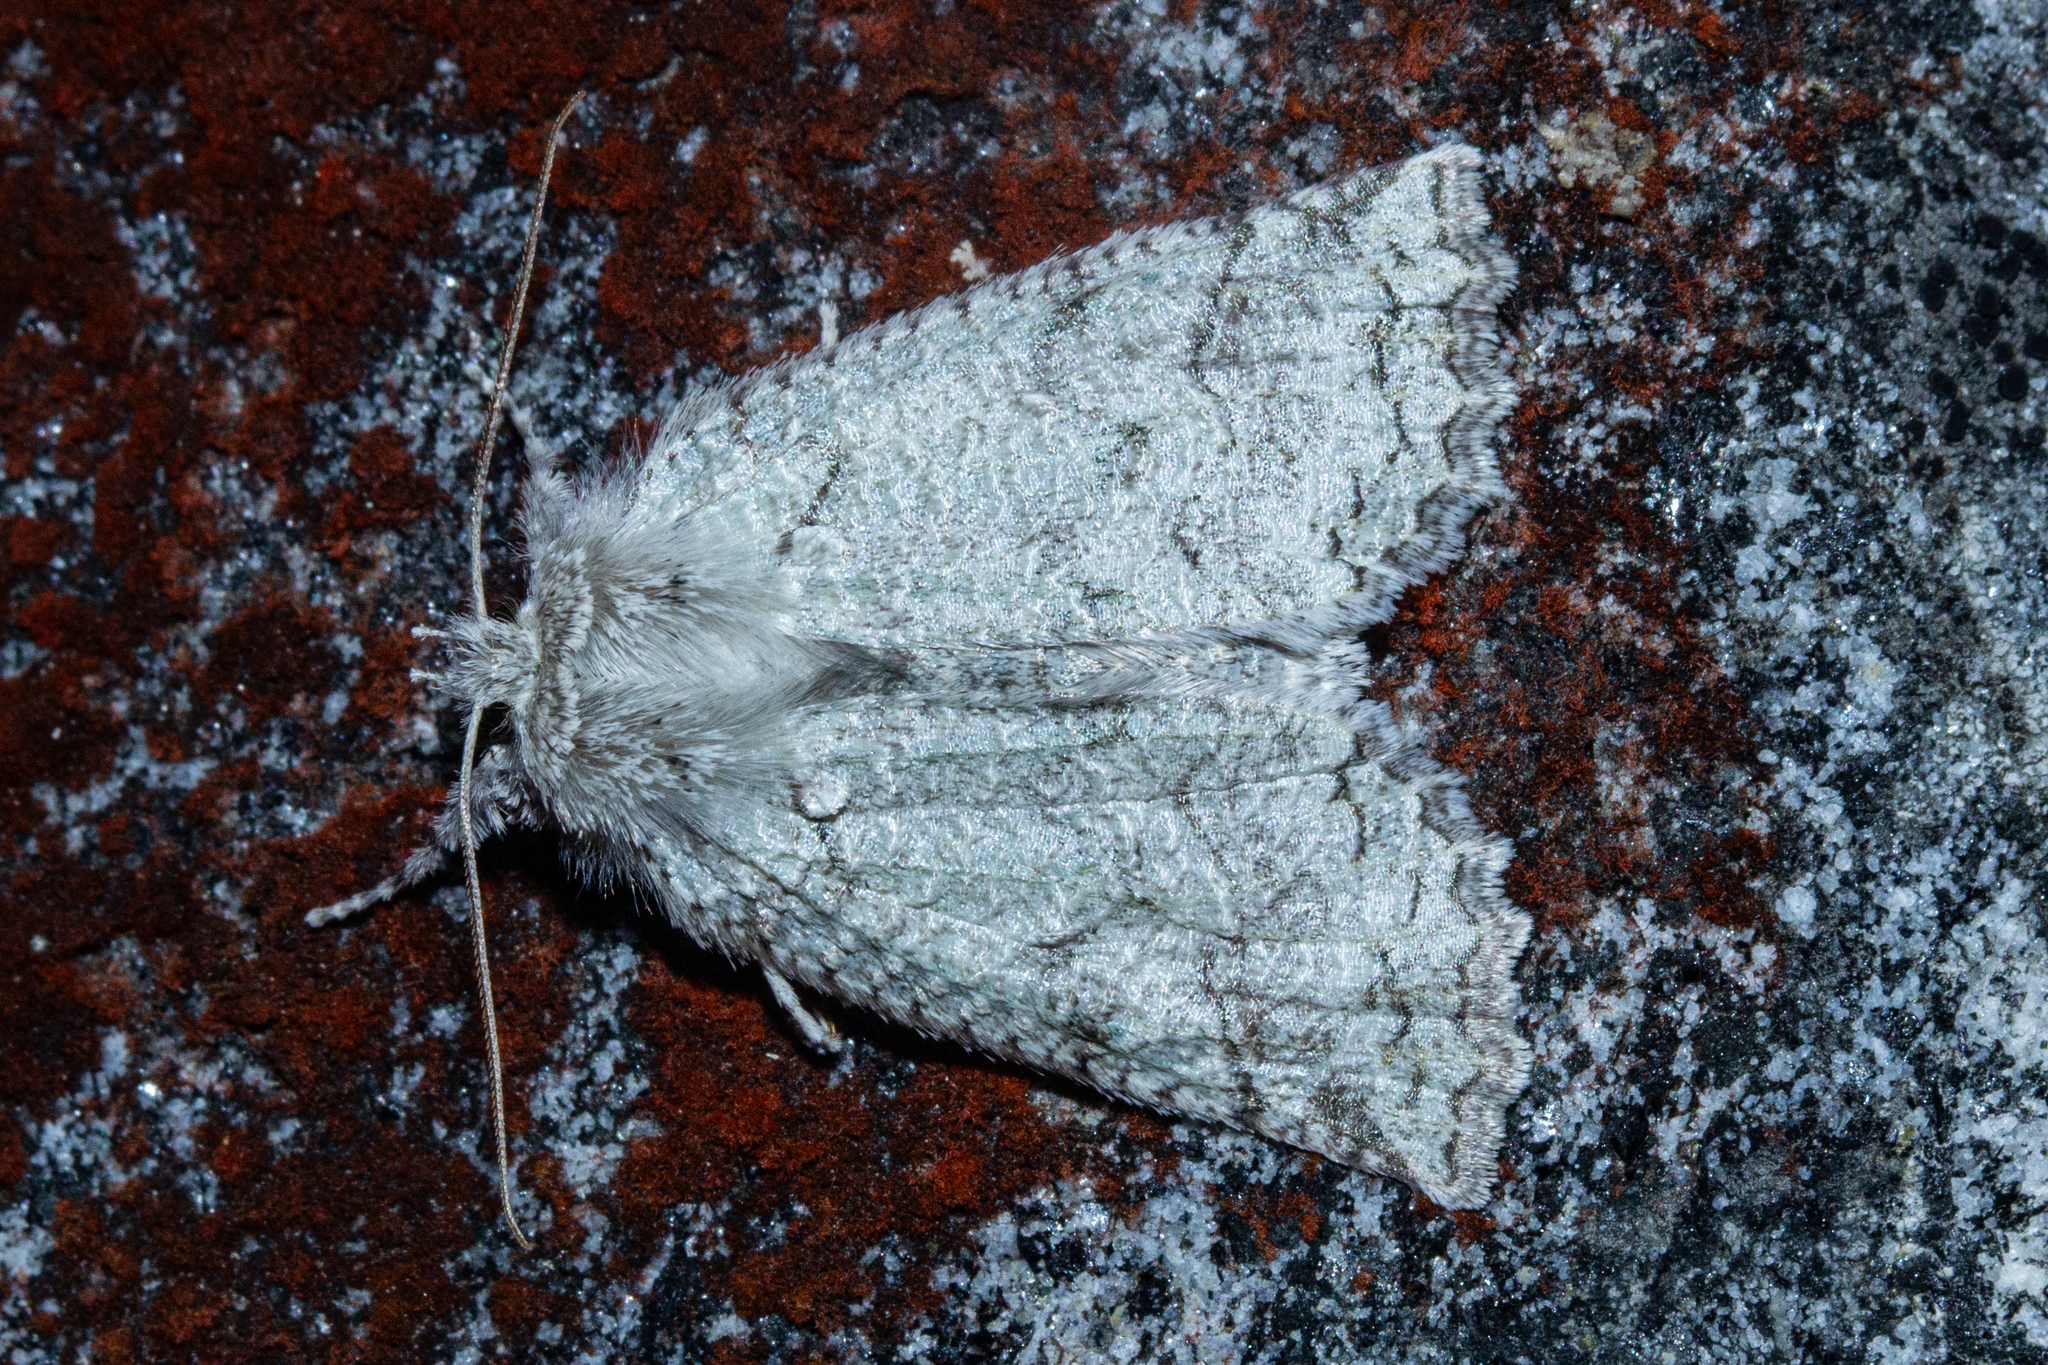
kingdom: Animalia
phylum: Arthropoda
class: Insecta
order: Lepidoptera
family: Geometridae
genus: Declana
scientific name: Declana floccosa
